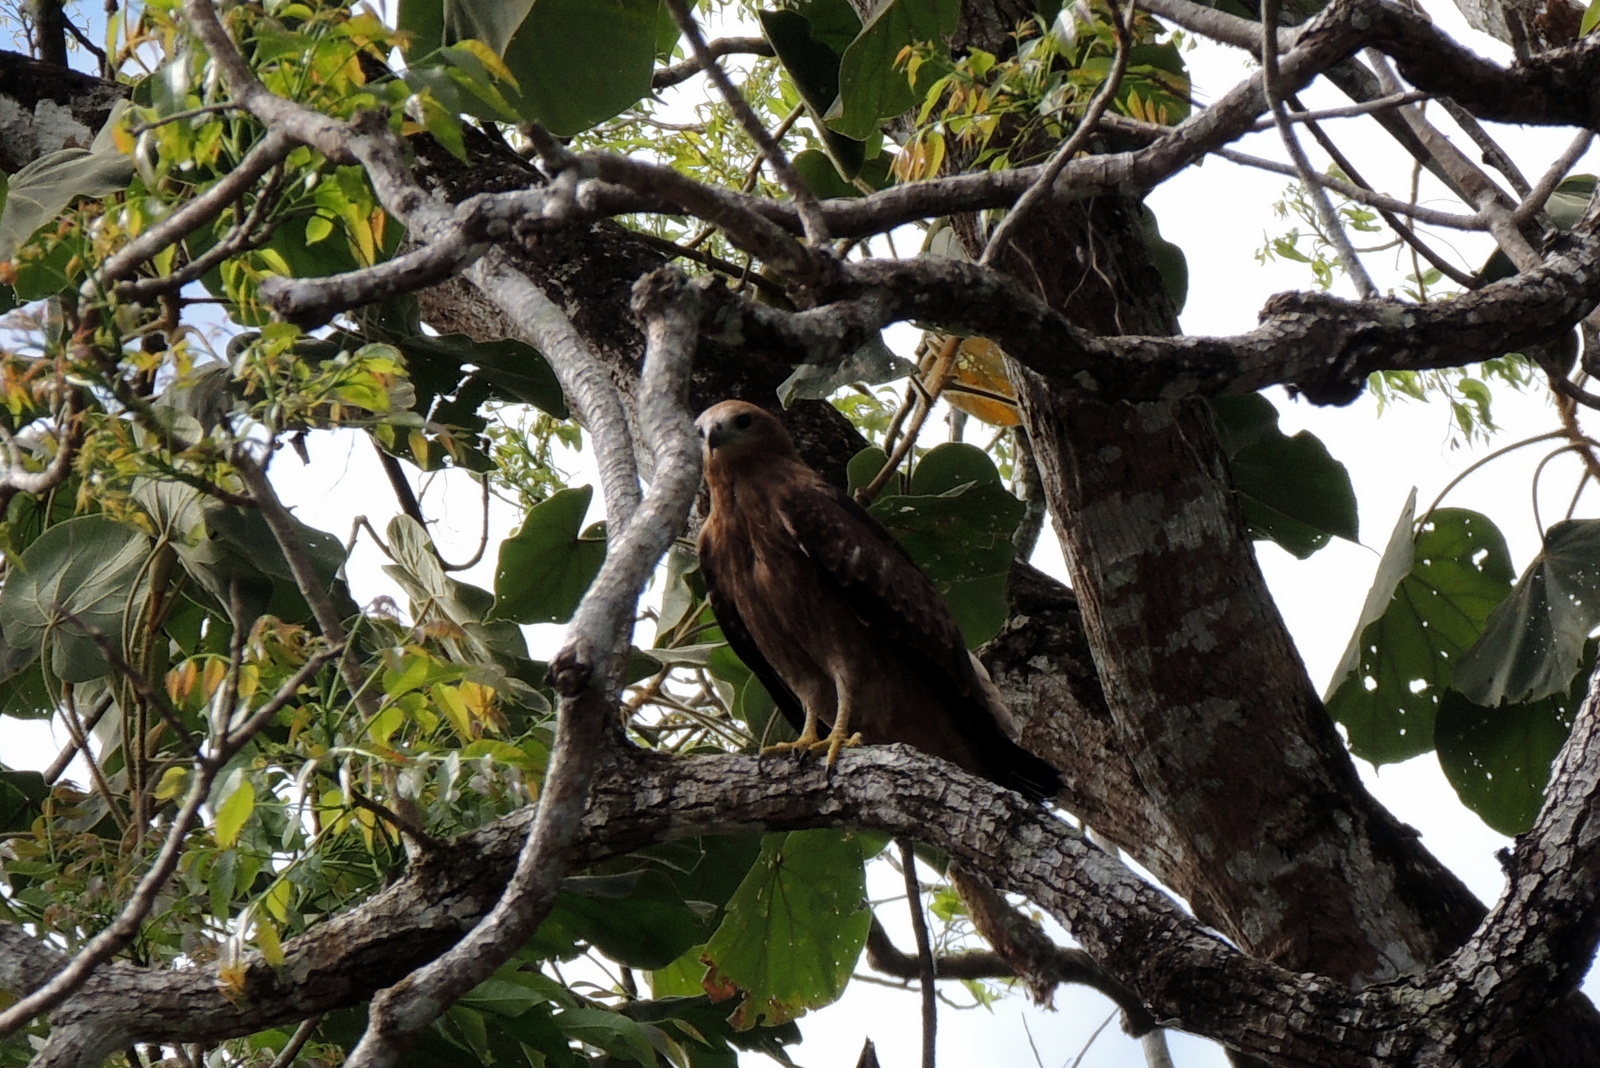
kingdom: Animalia
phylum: Chordata
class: Aves
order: Accipitriformes
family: Accipitridae
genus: Haliastur
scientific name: Haliastur indus
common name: Brahminy kite
